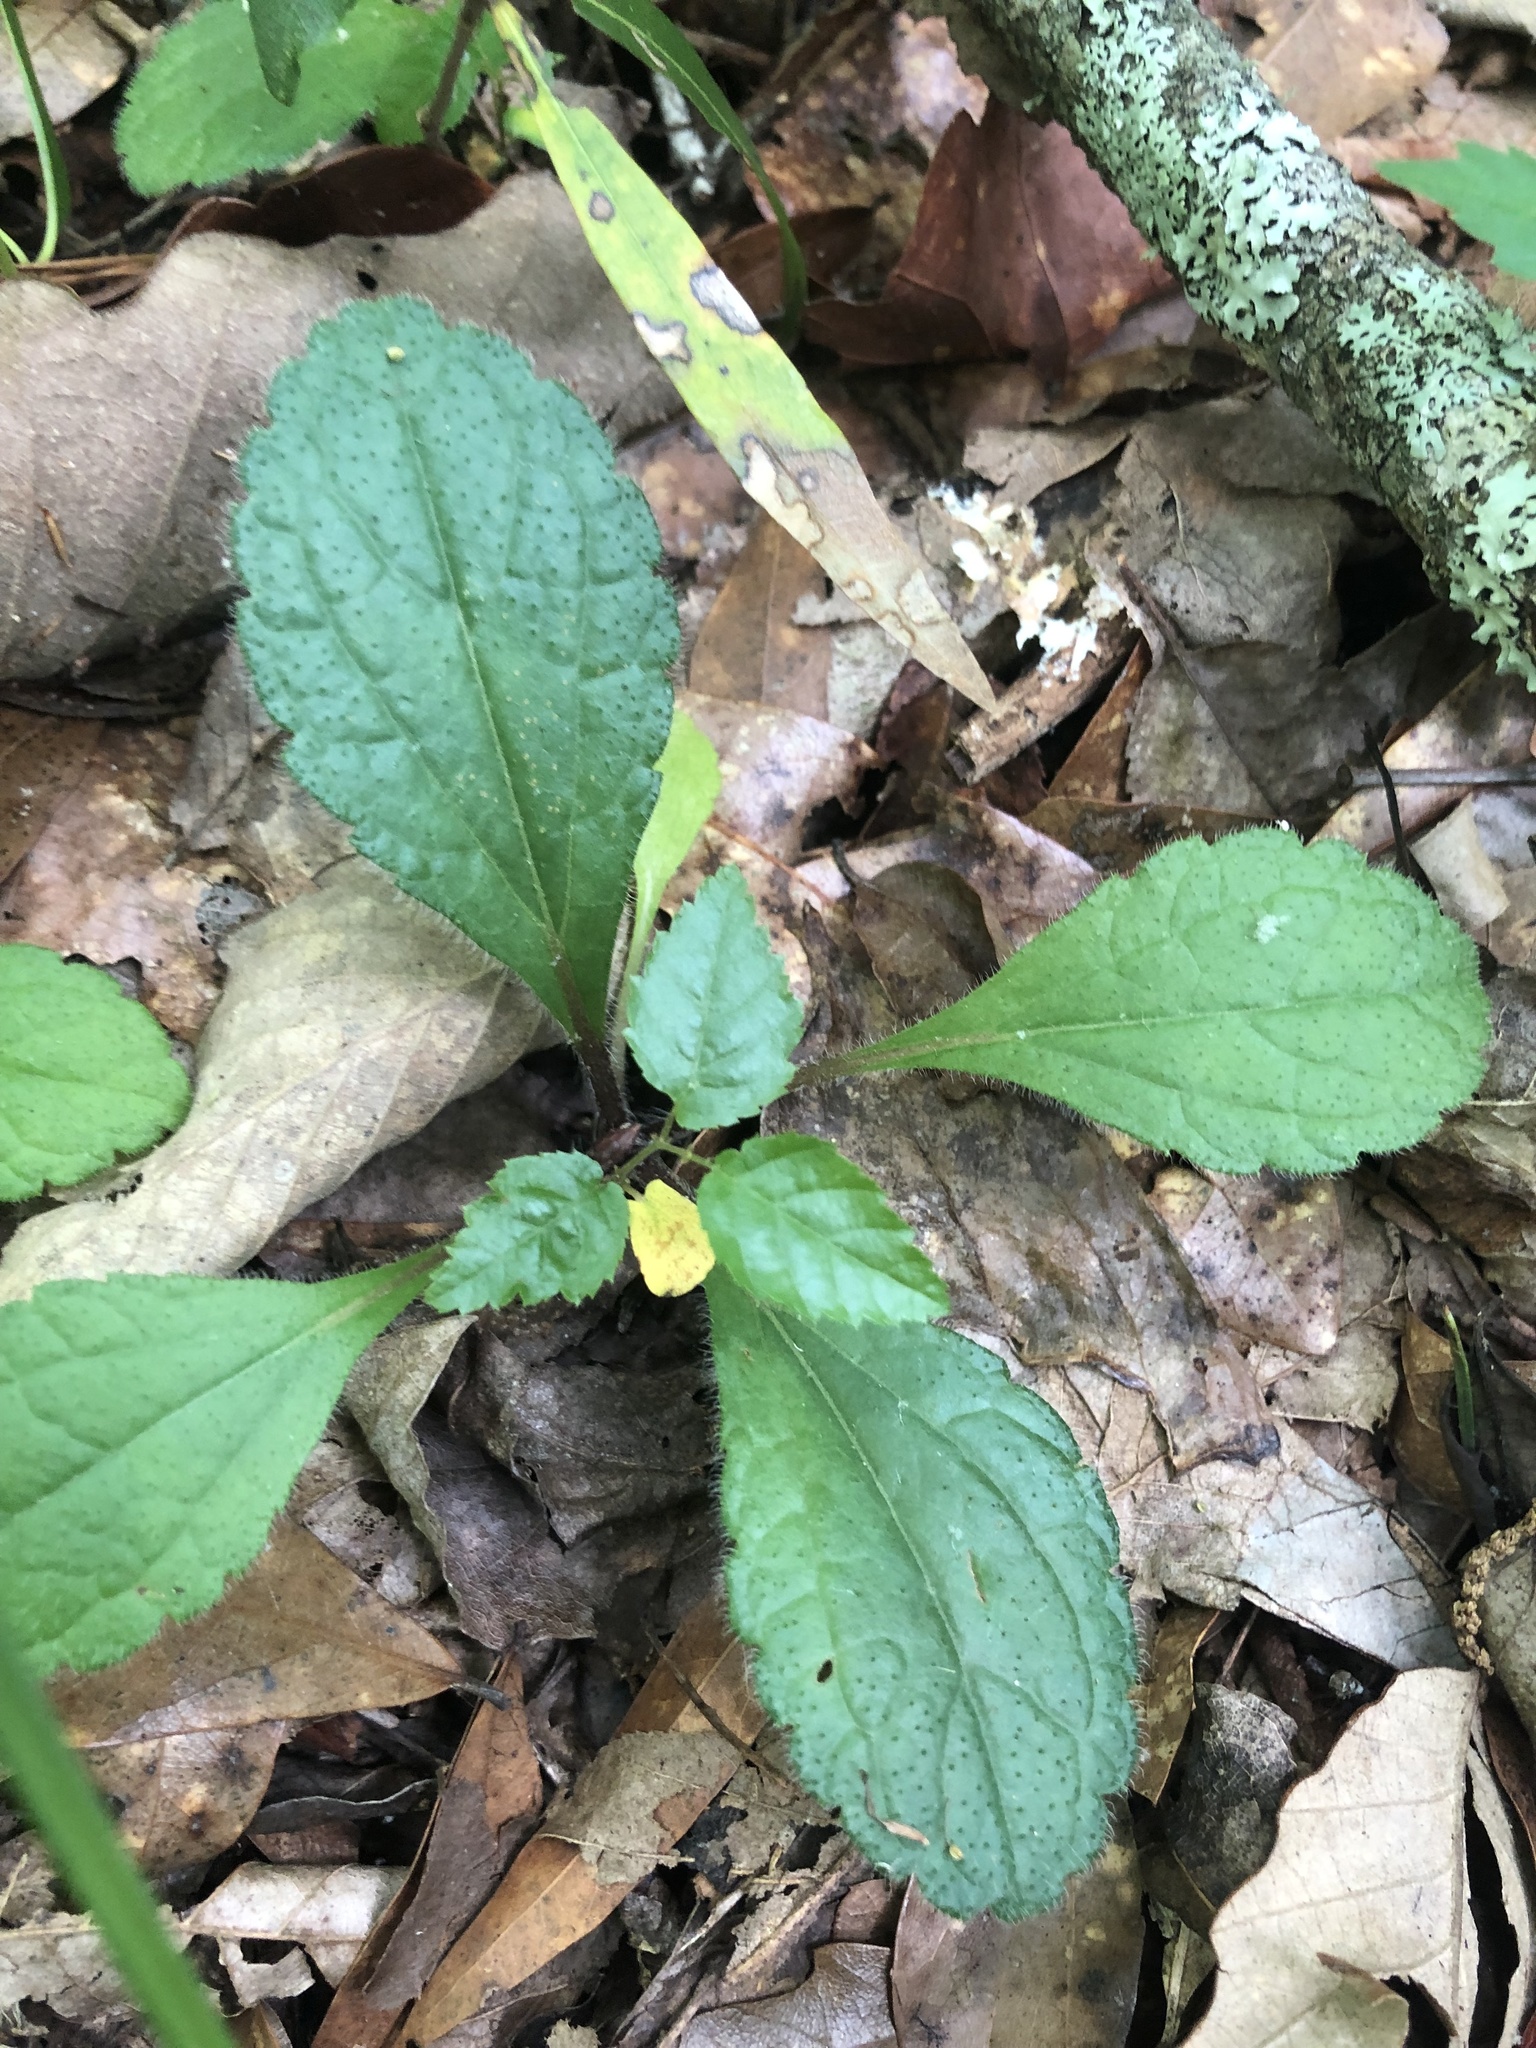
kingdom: Plantae
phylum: Tracheophyta
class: Magnoliopsida
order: Asterales
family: Asteraceae
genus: Chrysogonum
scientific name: Chrysogonum australe
